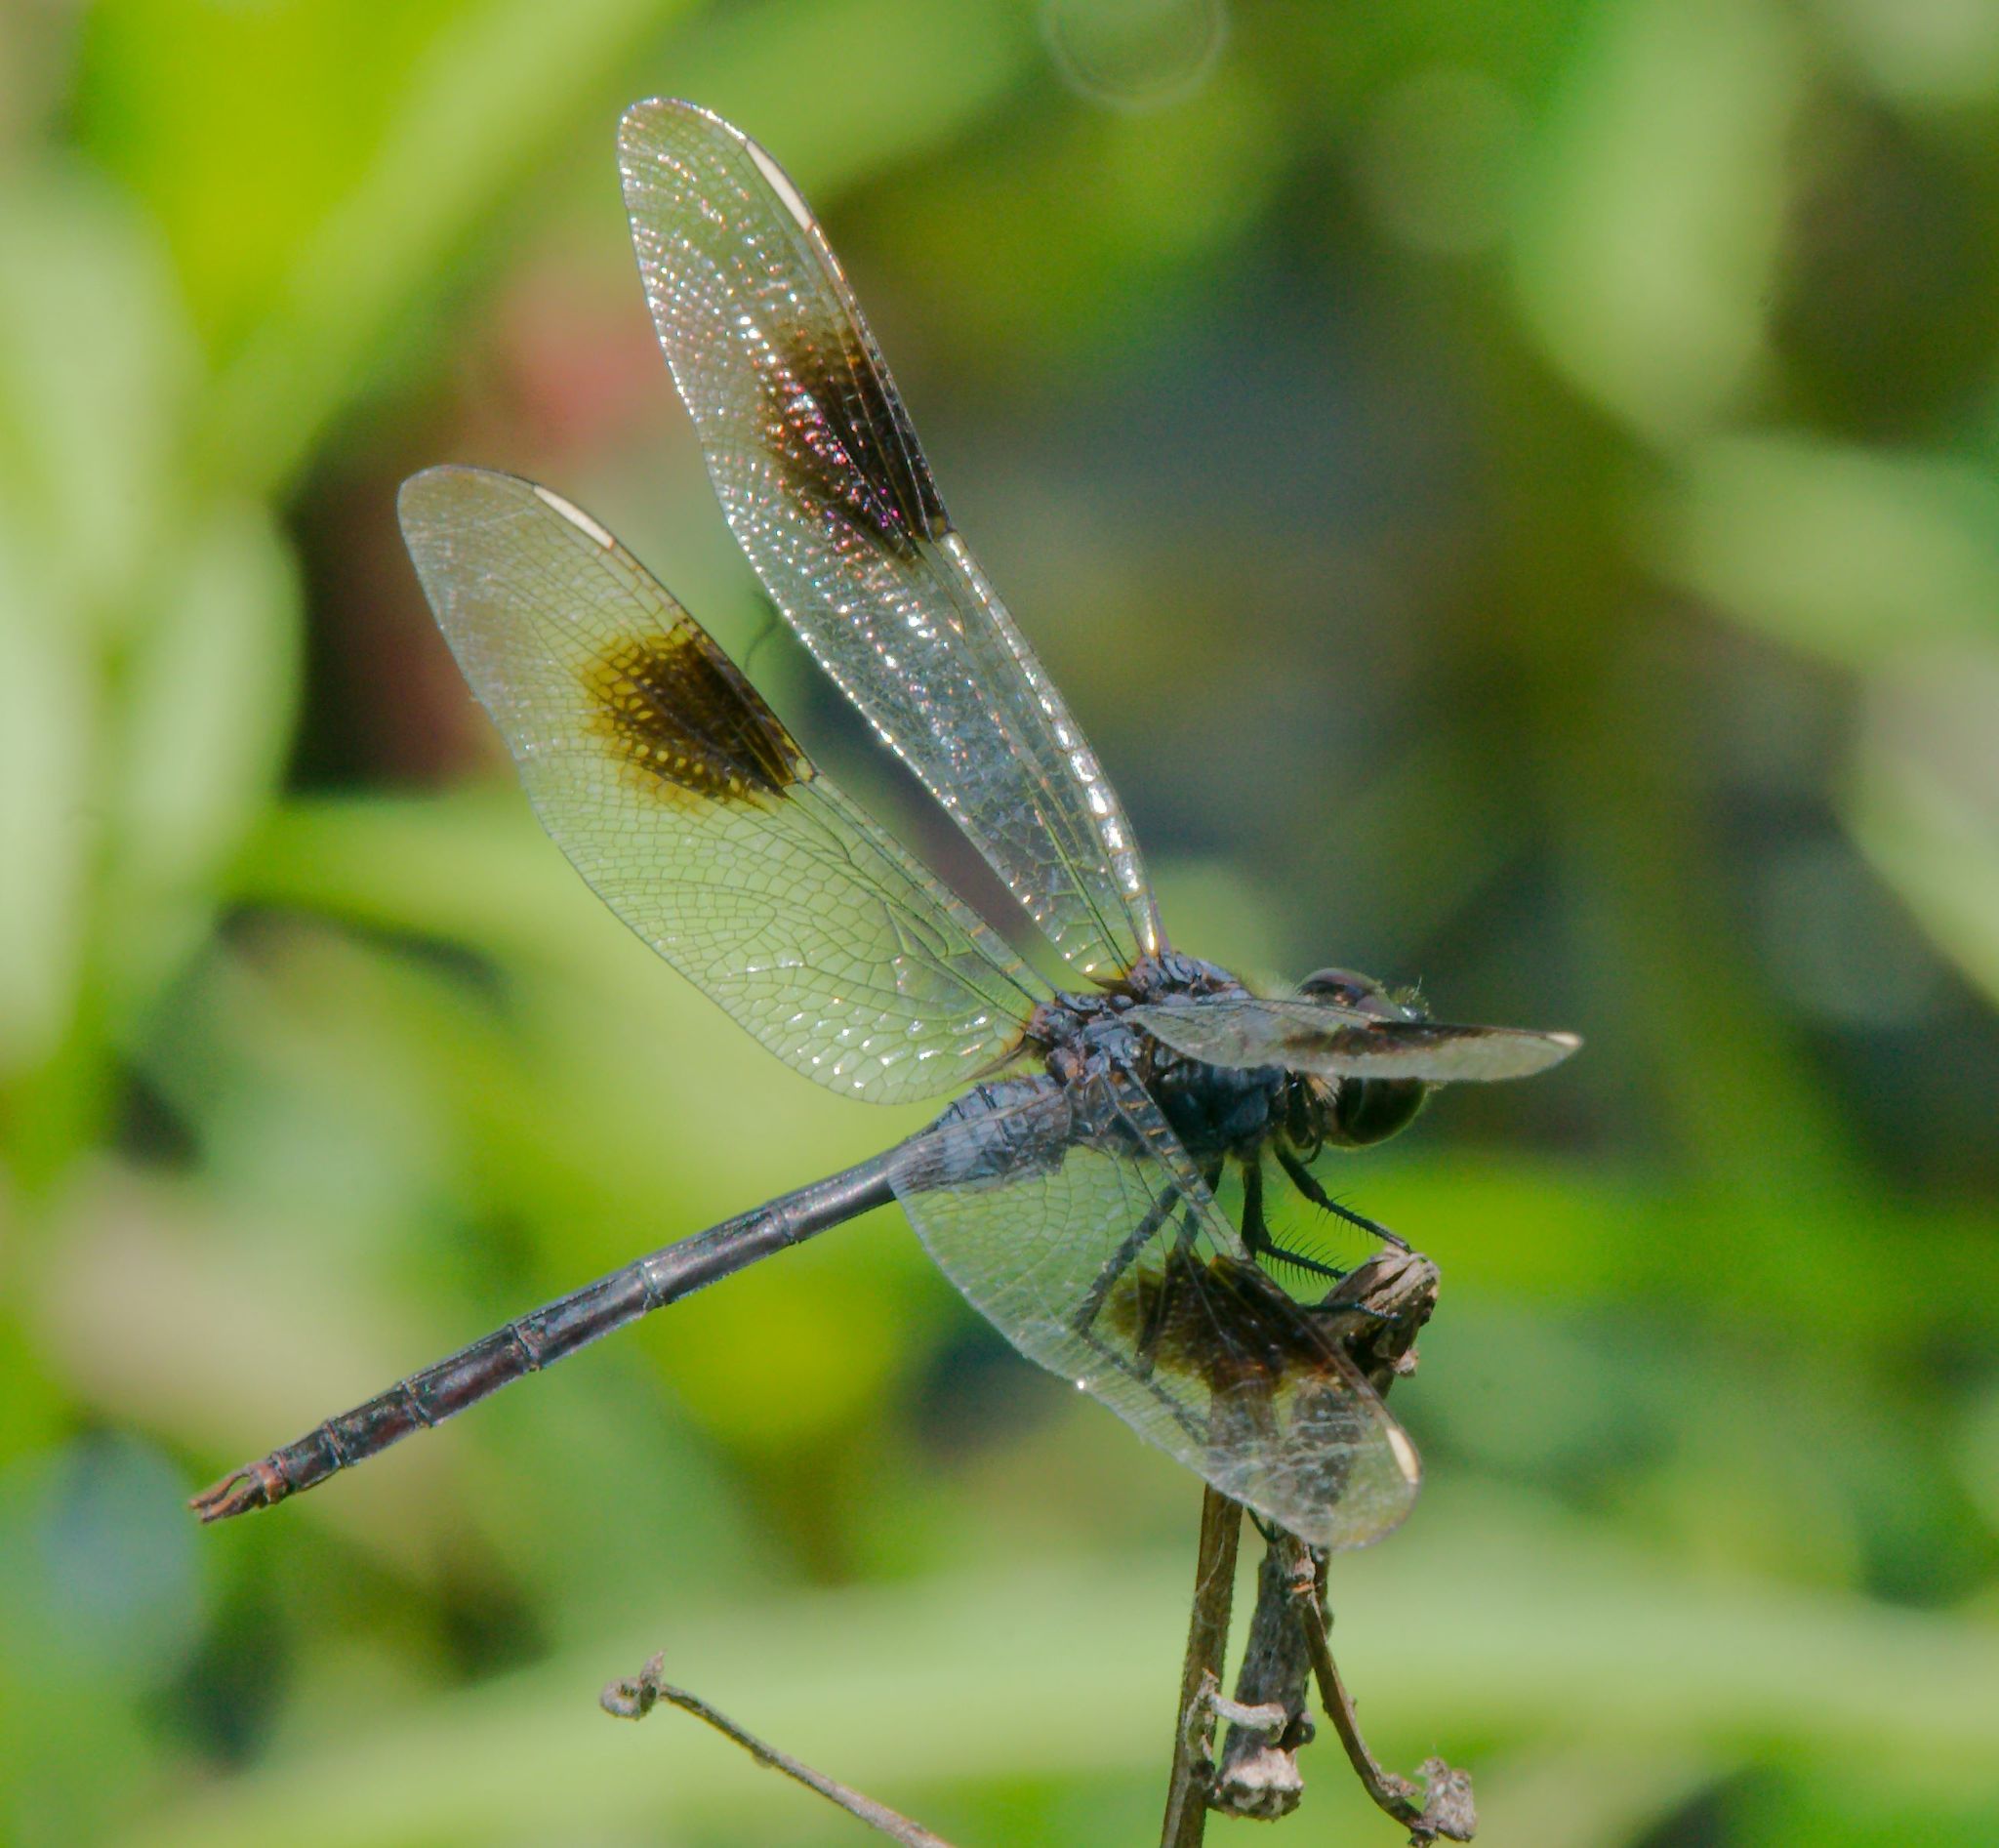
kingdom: Animalia
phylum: Arthropoda
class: Insecta
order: Odonata
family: Libellulidae
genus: Brachymesia
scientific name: Brachymesia gravida
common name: Four-spotted pennant
